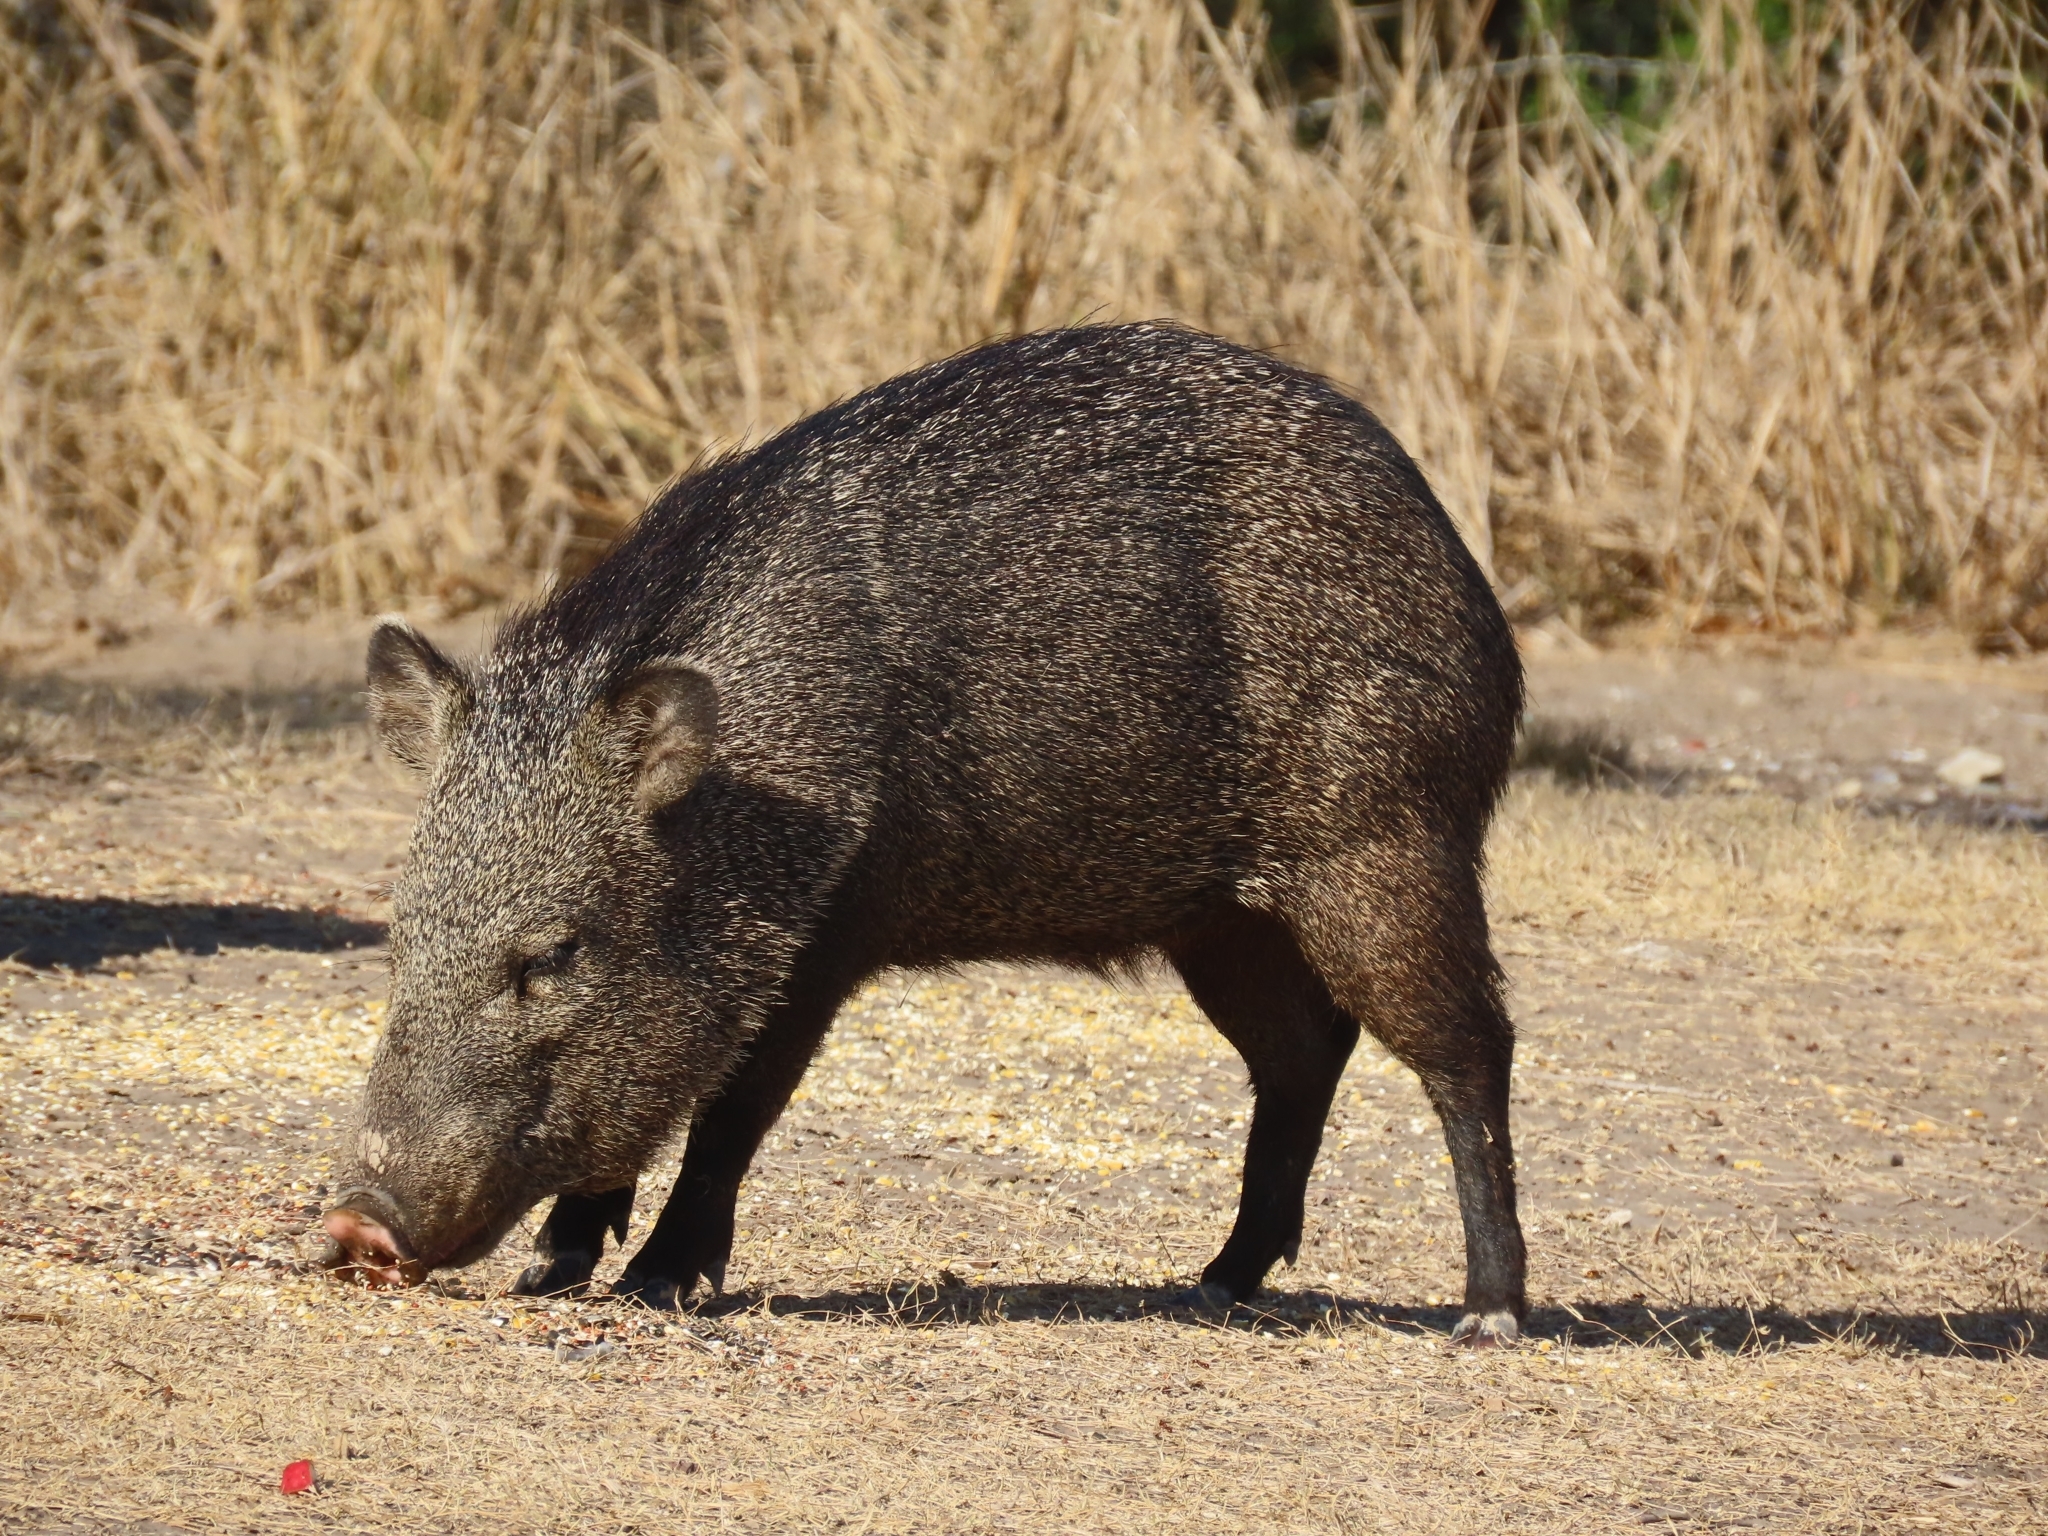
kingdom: Animalia
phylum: Chordata
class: Mammalia
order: Artiodactyla
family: Tayassuidae
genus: Pecari
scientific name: Pecari tajacu
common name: Collared peccary
